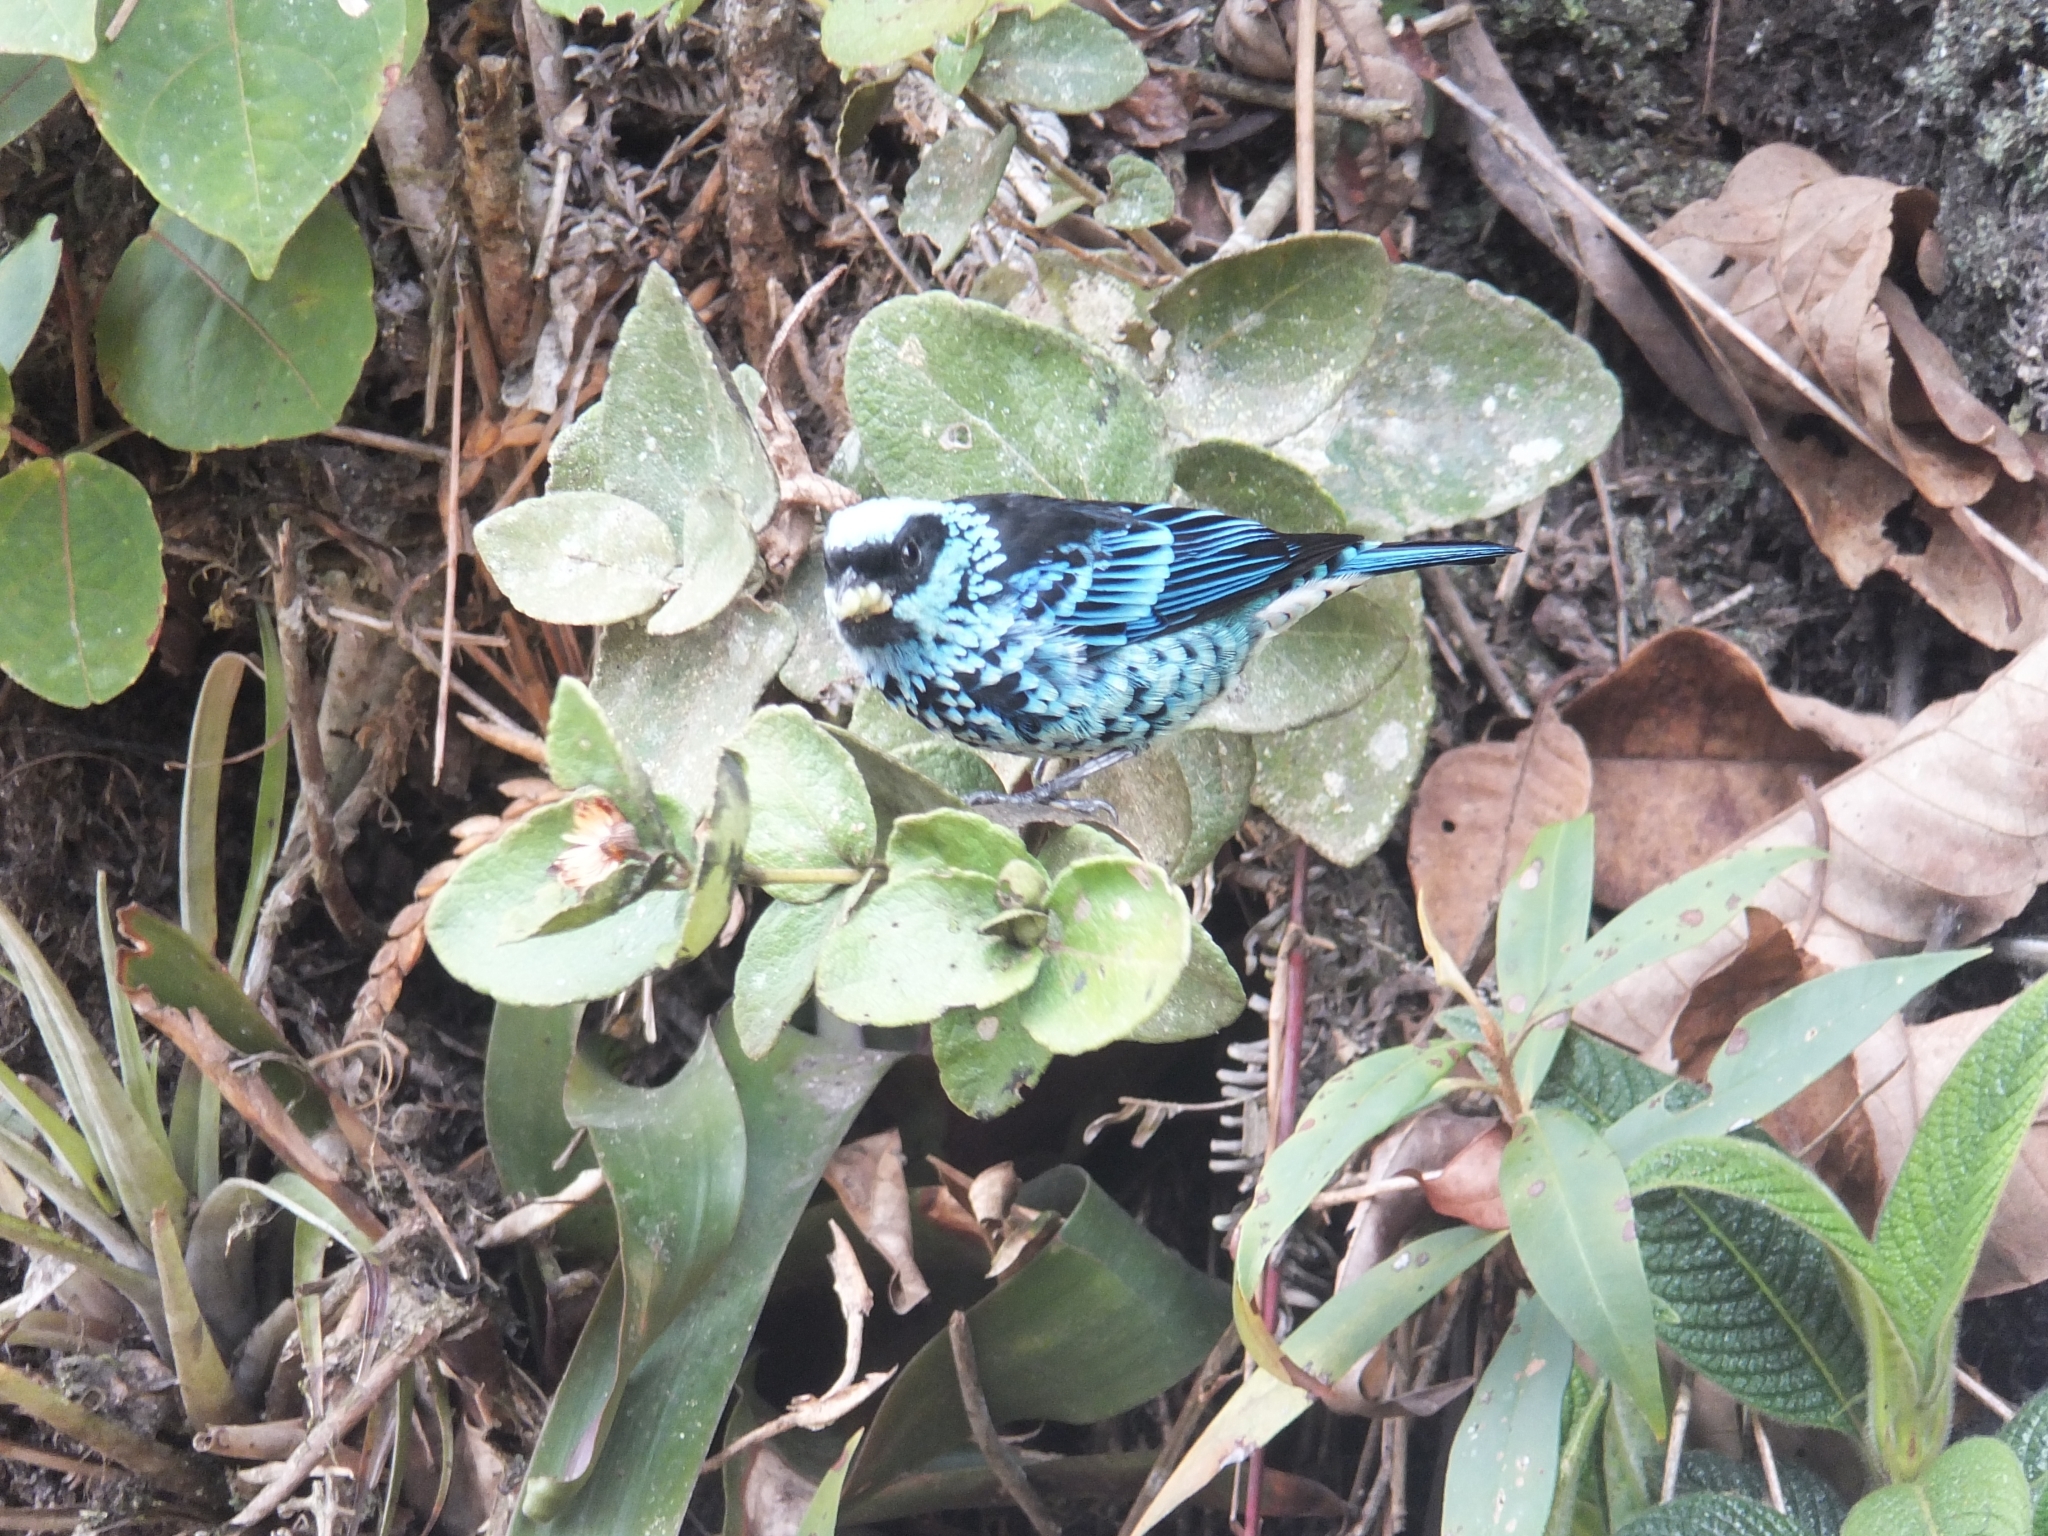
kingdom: Animalia
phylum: Chordata
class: Aves
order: Passeriformes
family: Thraupidae
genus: Tangara
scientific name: Tangara nigroviridis
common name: Beryl-spangled tanager
